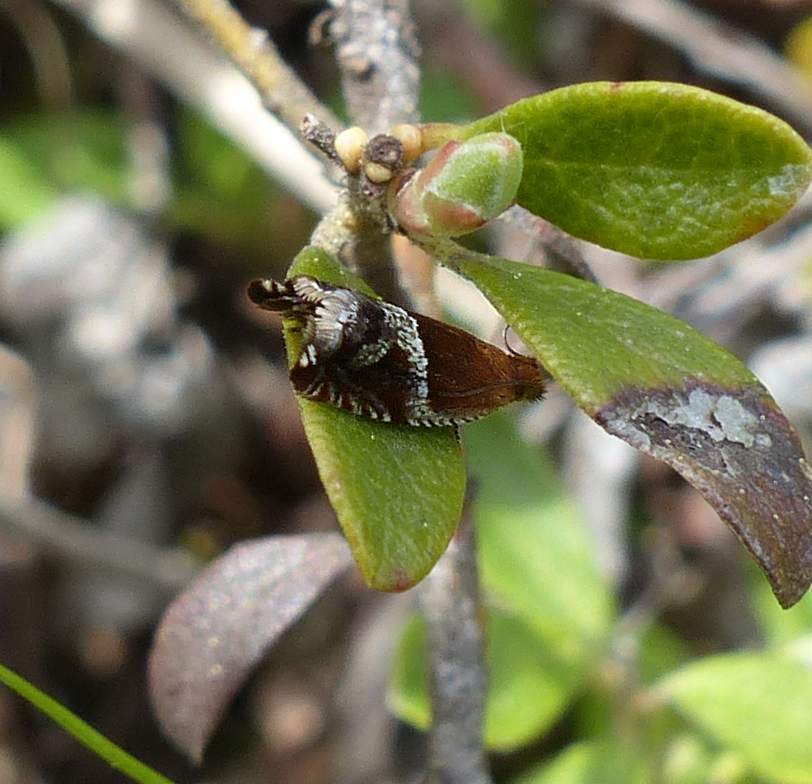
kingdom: Animalia
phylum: Arthropoda
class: Insecta
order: Lepidoptera
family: Tortricidae
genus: Ancylis
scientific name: Ancylis comptana
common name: Little roller
